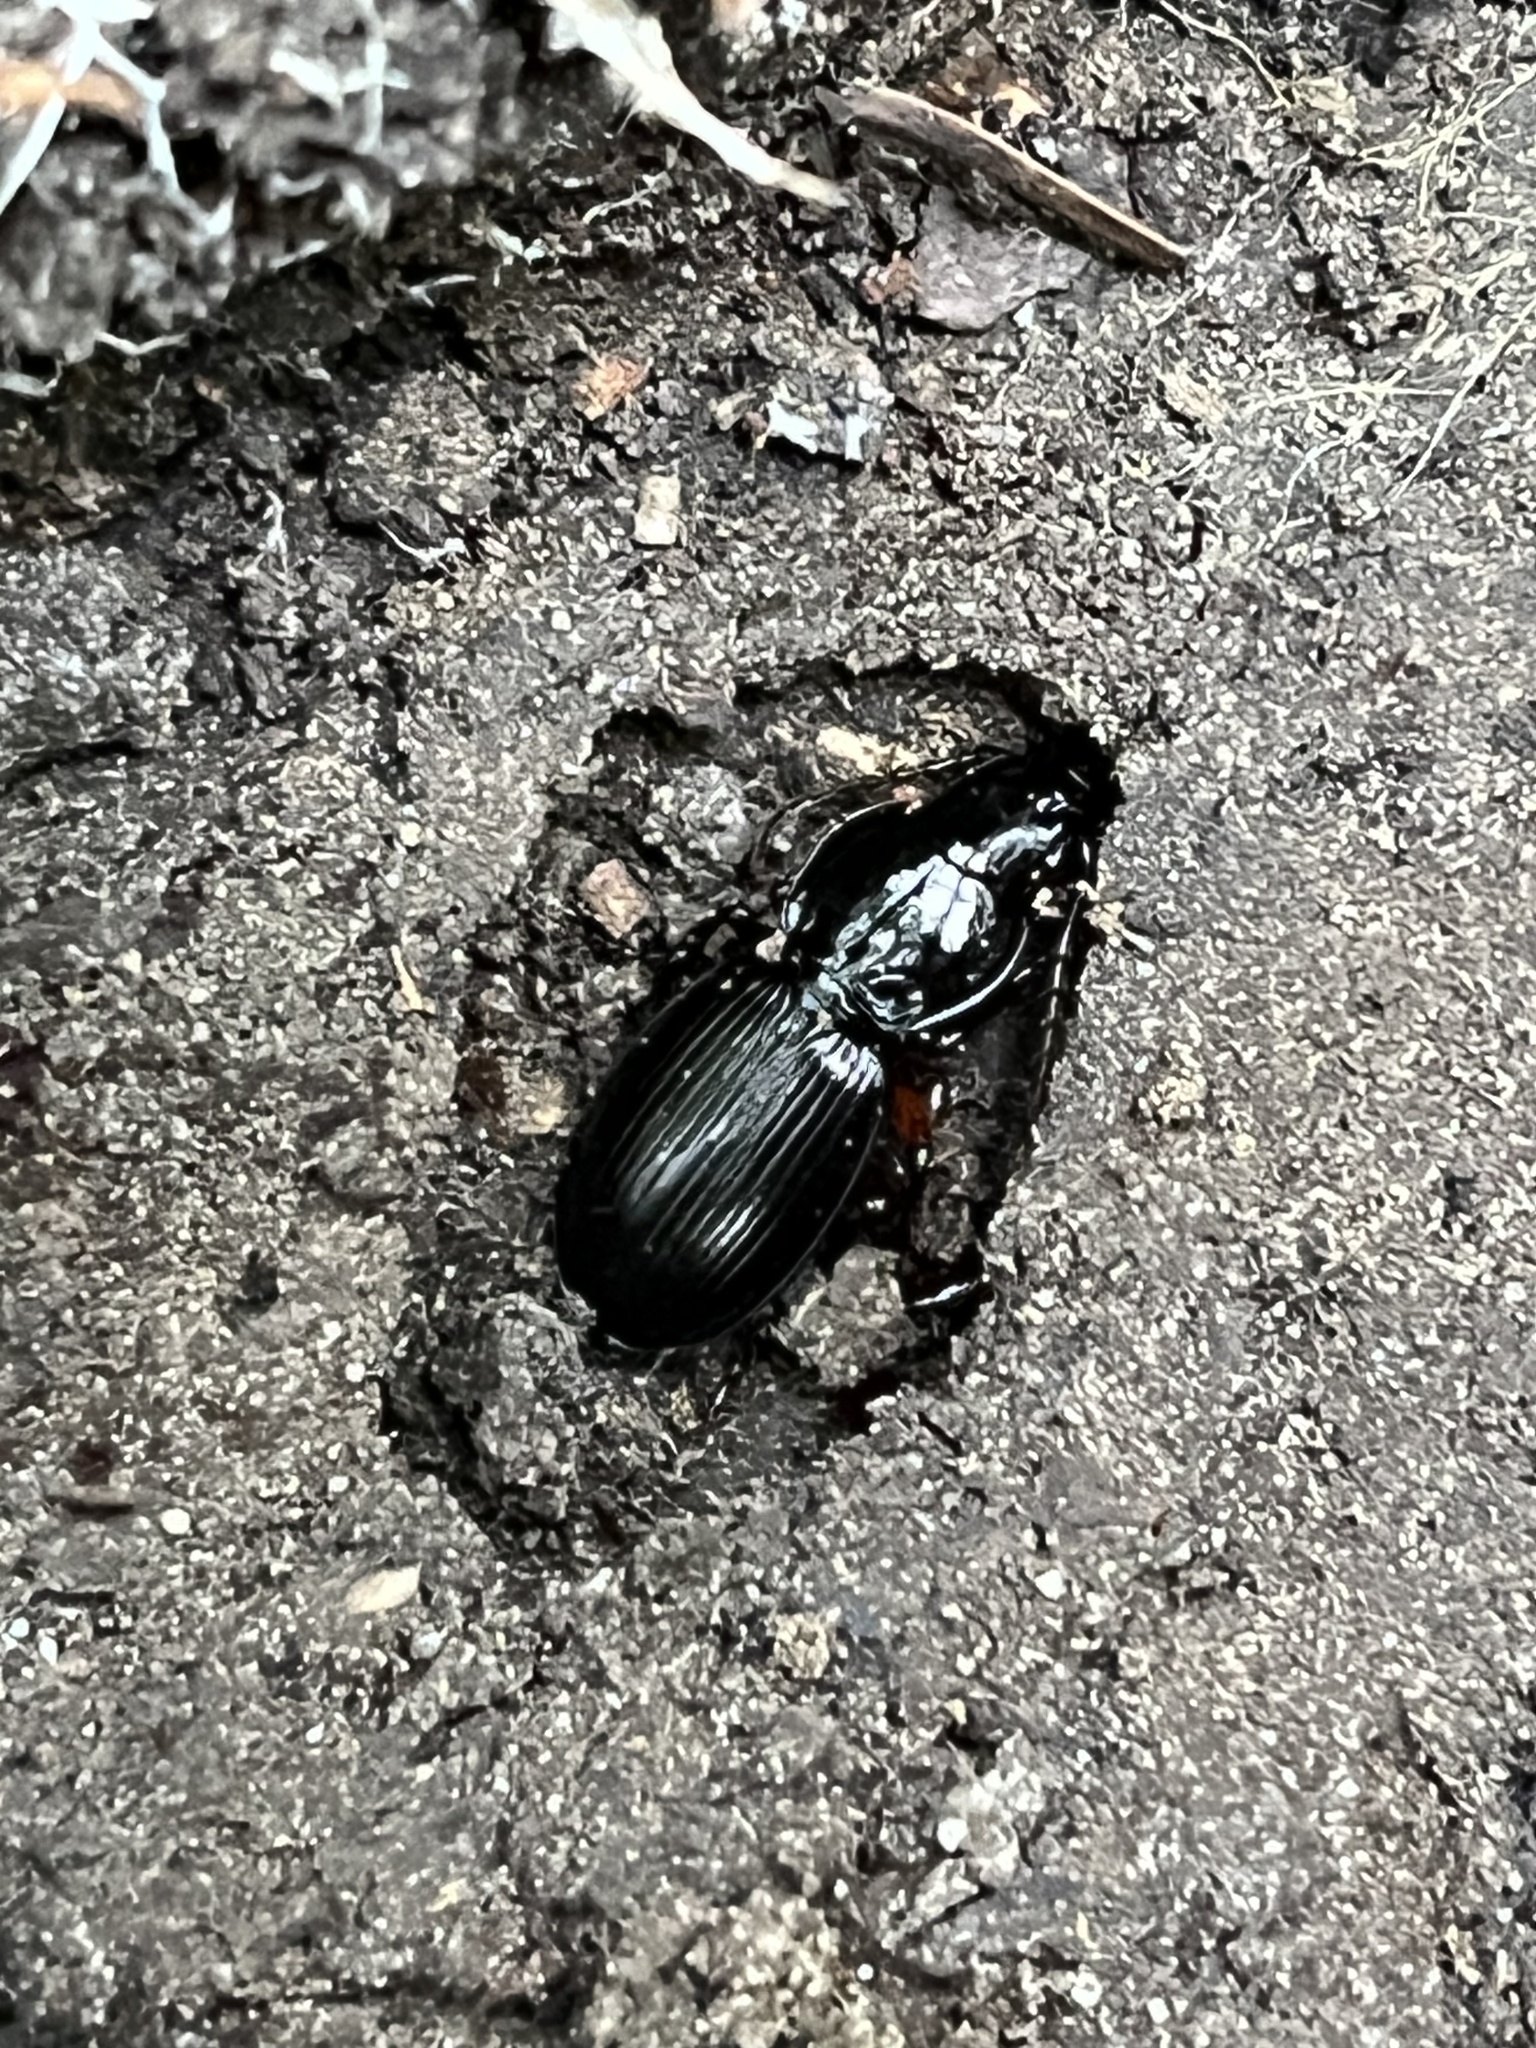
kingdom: Animalia
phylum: Arthropoda
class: Insecta
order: Coleoptera
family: Carabidae
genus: Pterostichus
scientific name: Pterostichus madidus
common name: Black clock
